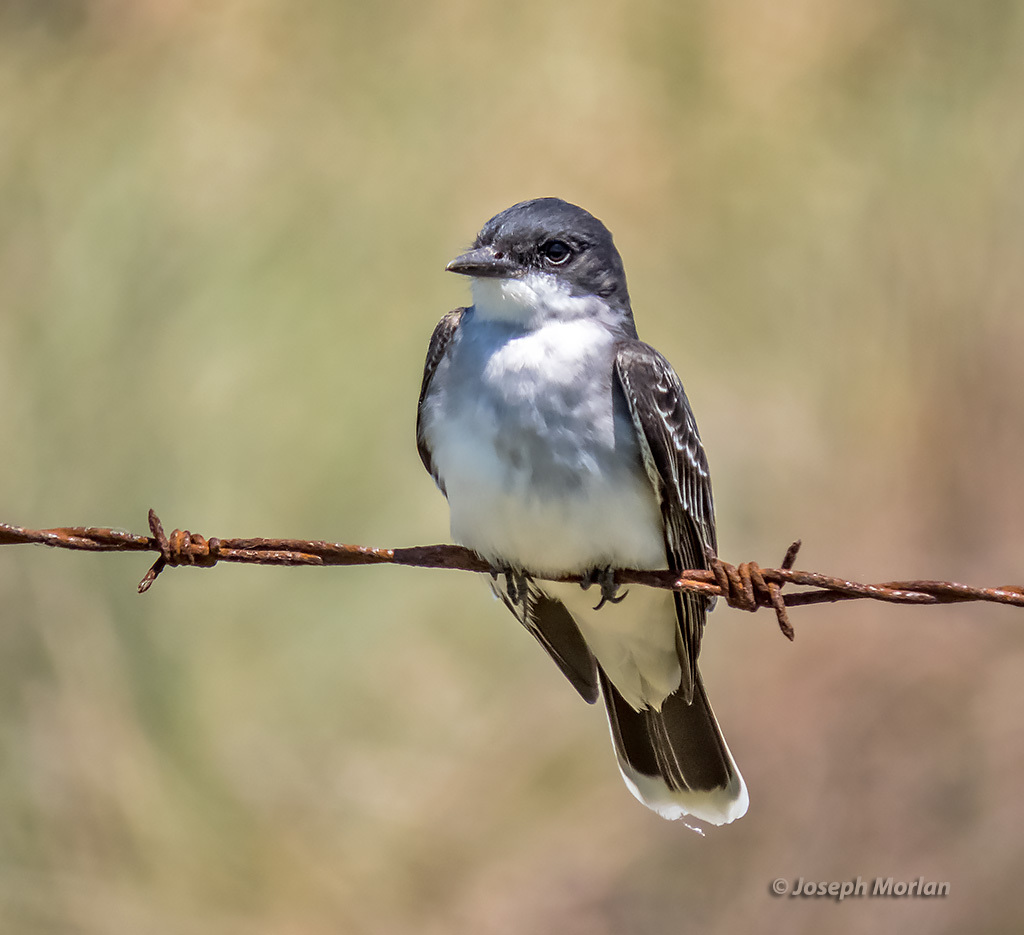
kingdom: Animalia
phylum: Chordata
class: Aves
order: Passeriformes
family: Tyrannidae
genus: Tyrannus
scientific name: Tyrannus tyrannus
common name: Eastern kingbird
